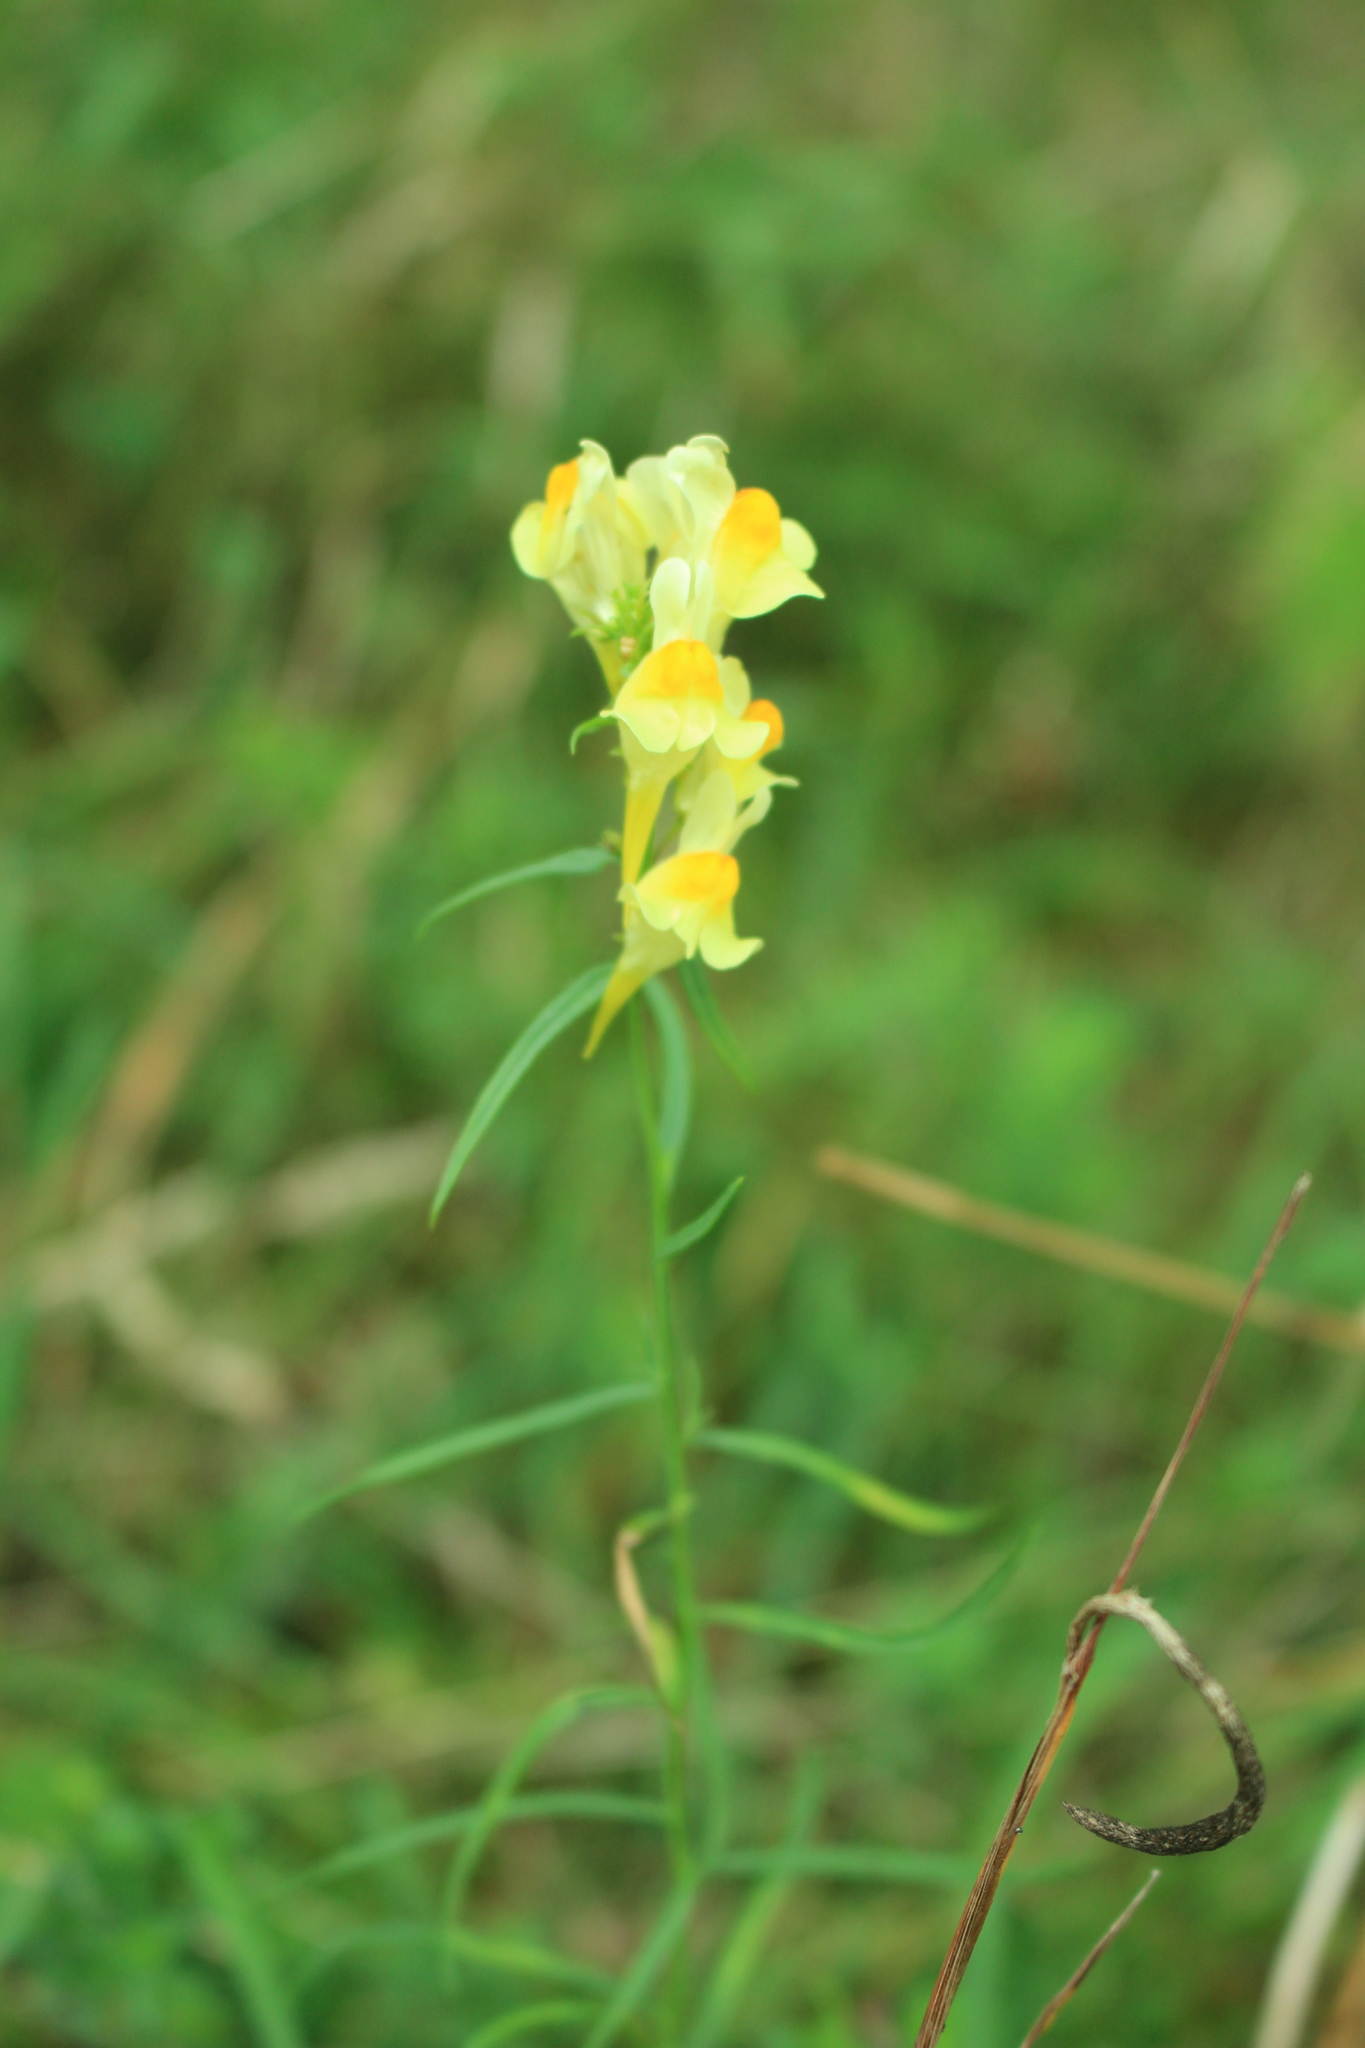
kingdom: Plantae
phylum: Tracheophyta
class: Magnoliopsida
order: Lamiales
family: Plantaginaceae
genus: Linaria
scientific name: Linaria vulgaris
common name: Butter and eggs
